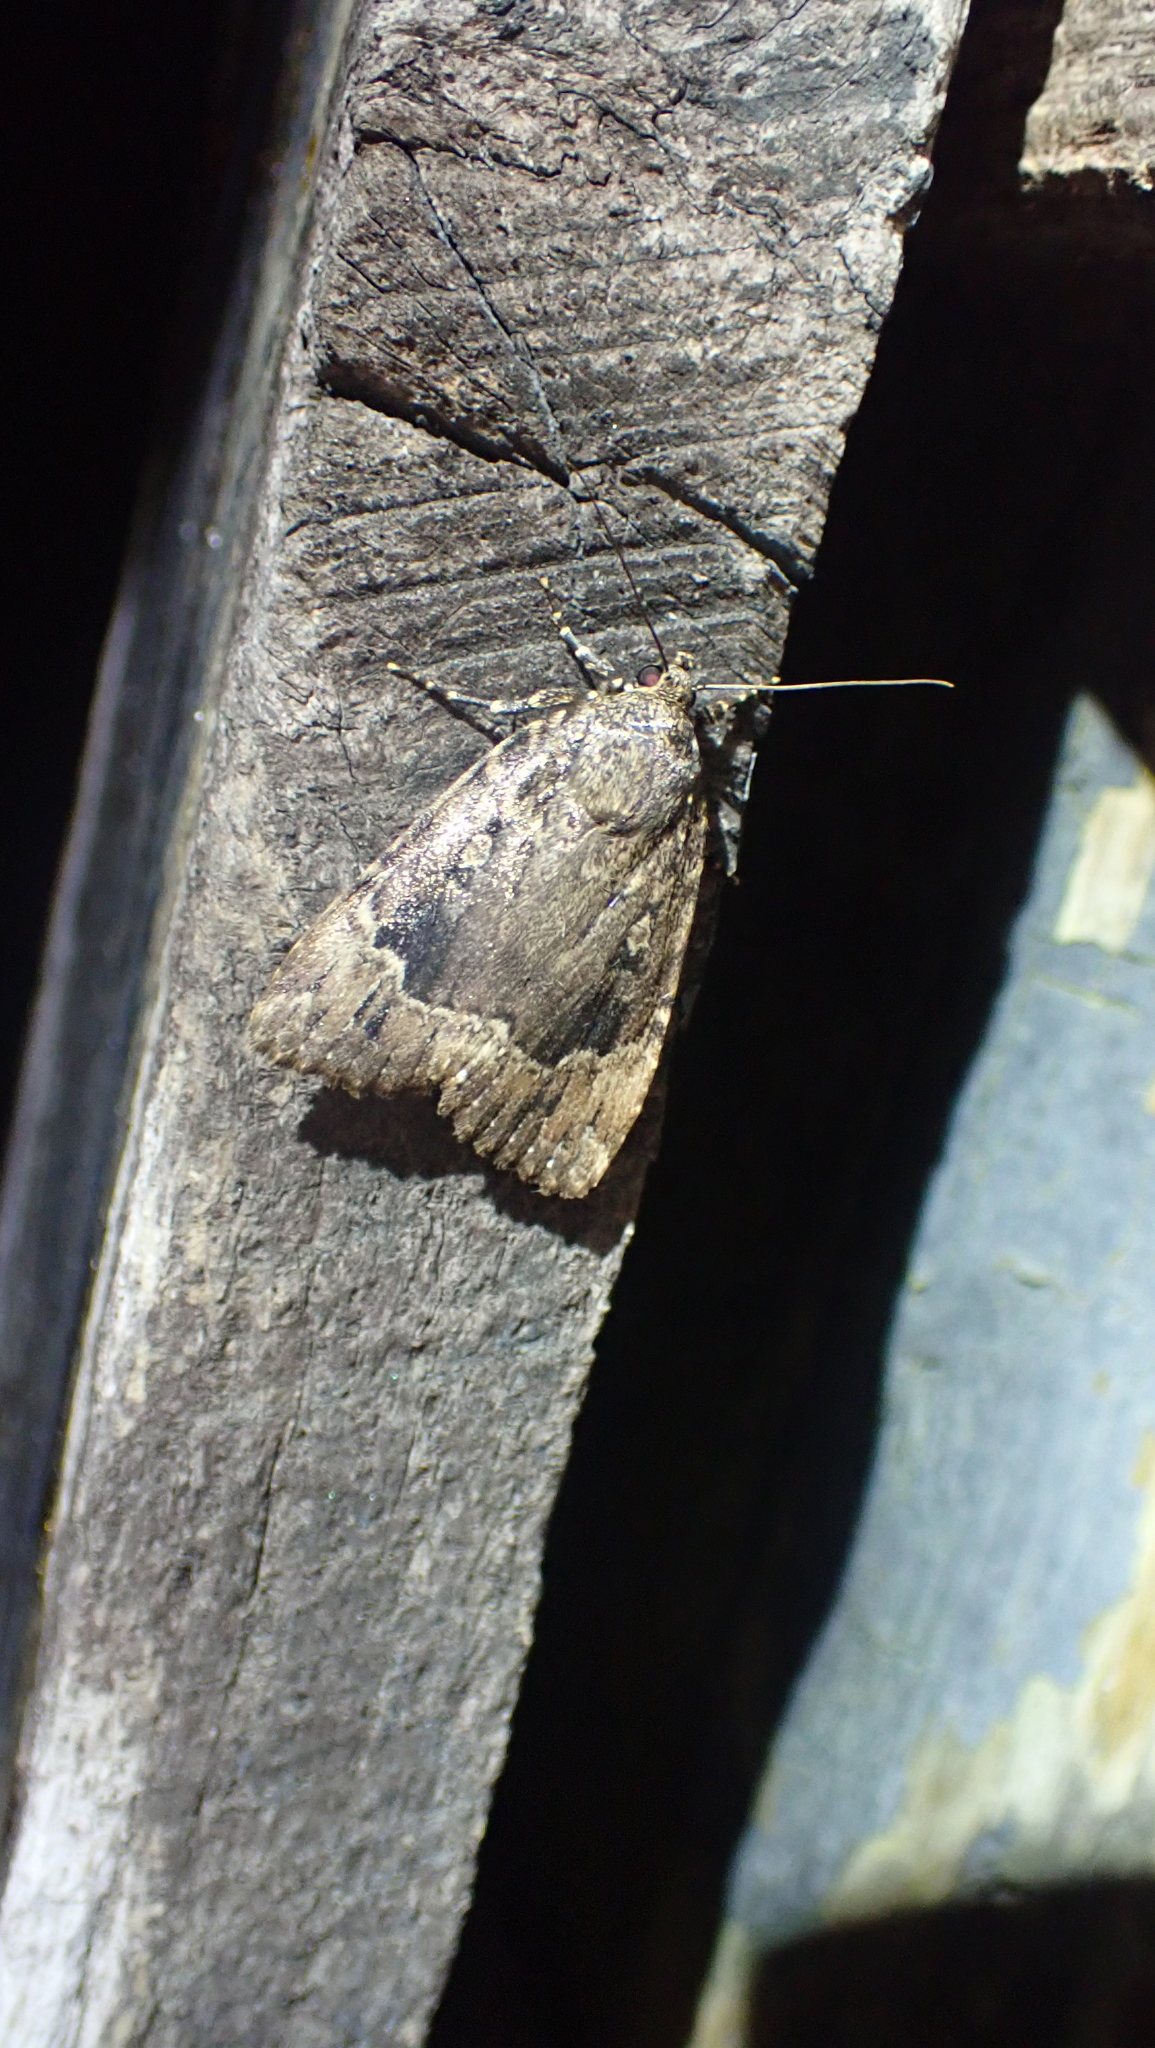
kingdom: Animalia
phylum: Arthropoda
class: Insecta
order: Lepidoptera
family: Noctuidae
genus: Amphipyra
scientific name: Amphipyra pyramidoides
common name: American copper underwing
